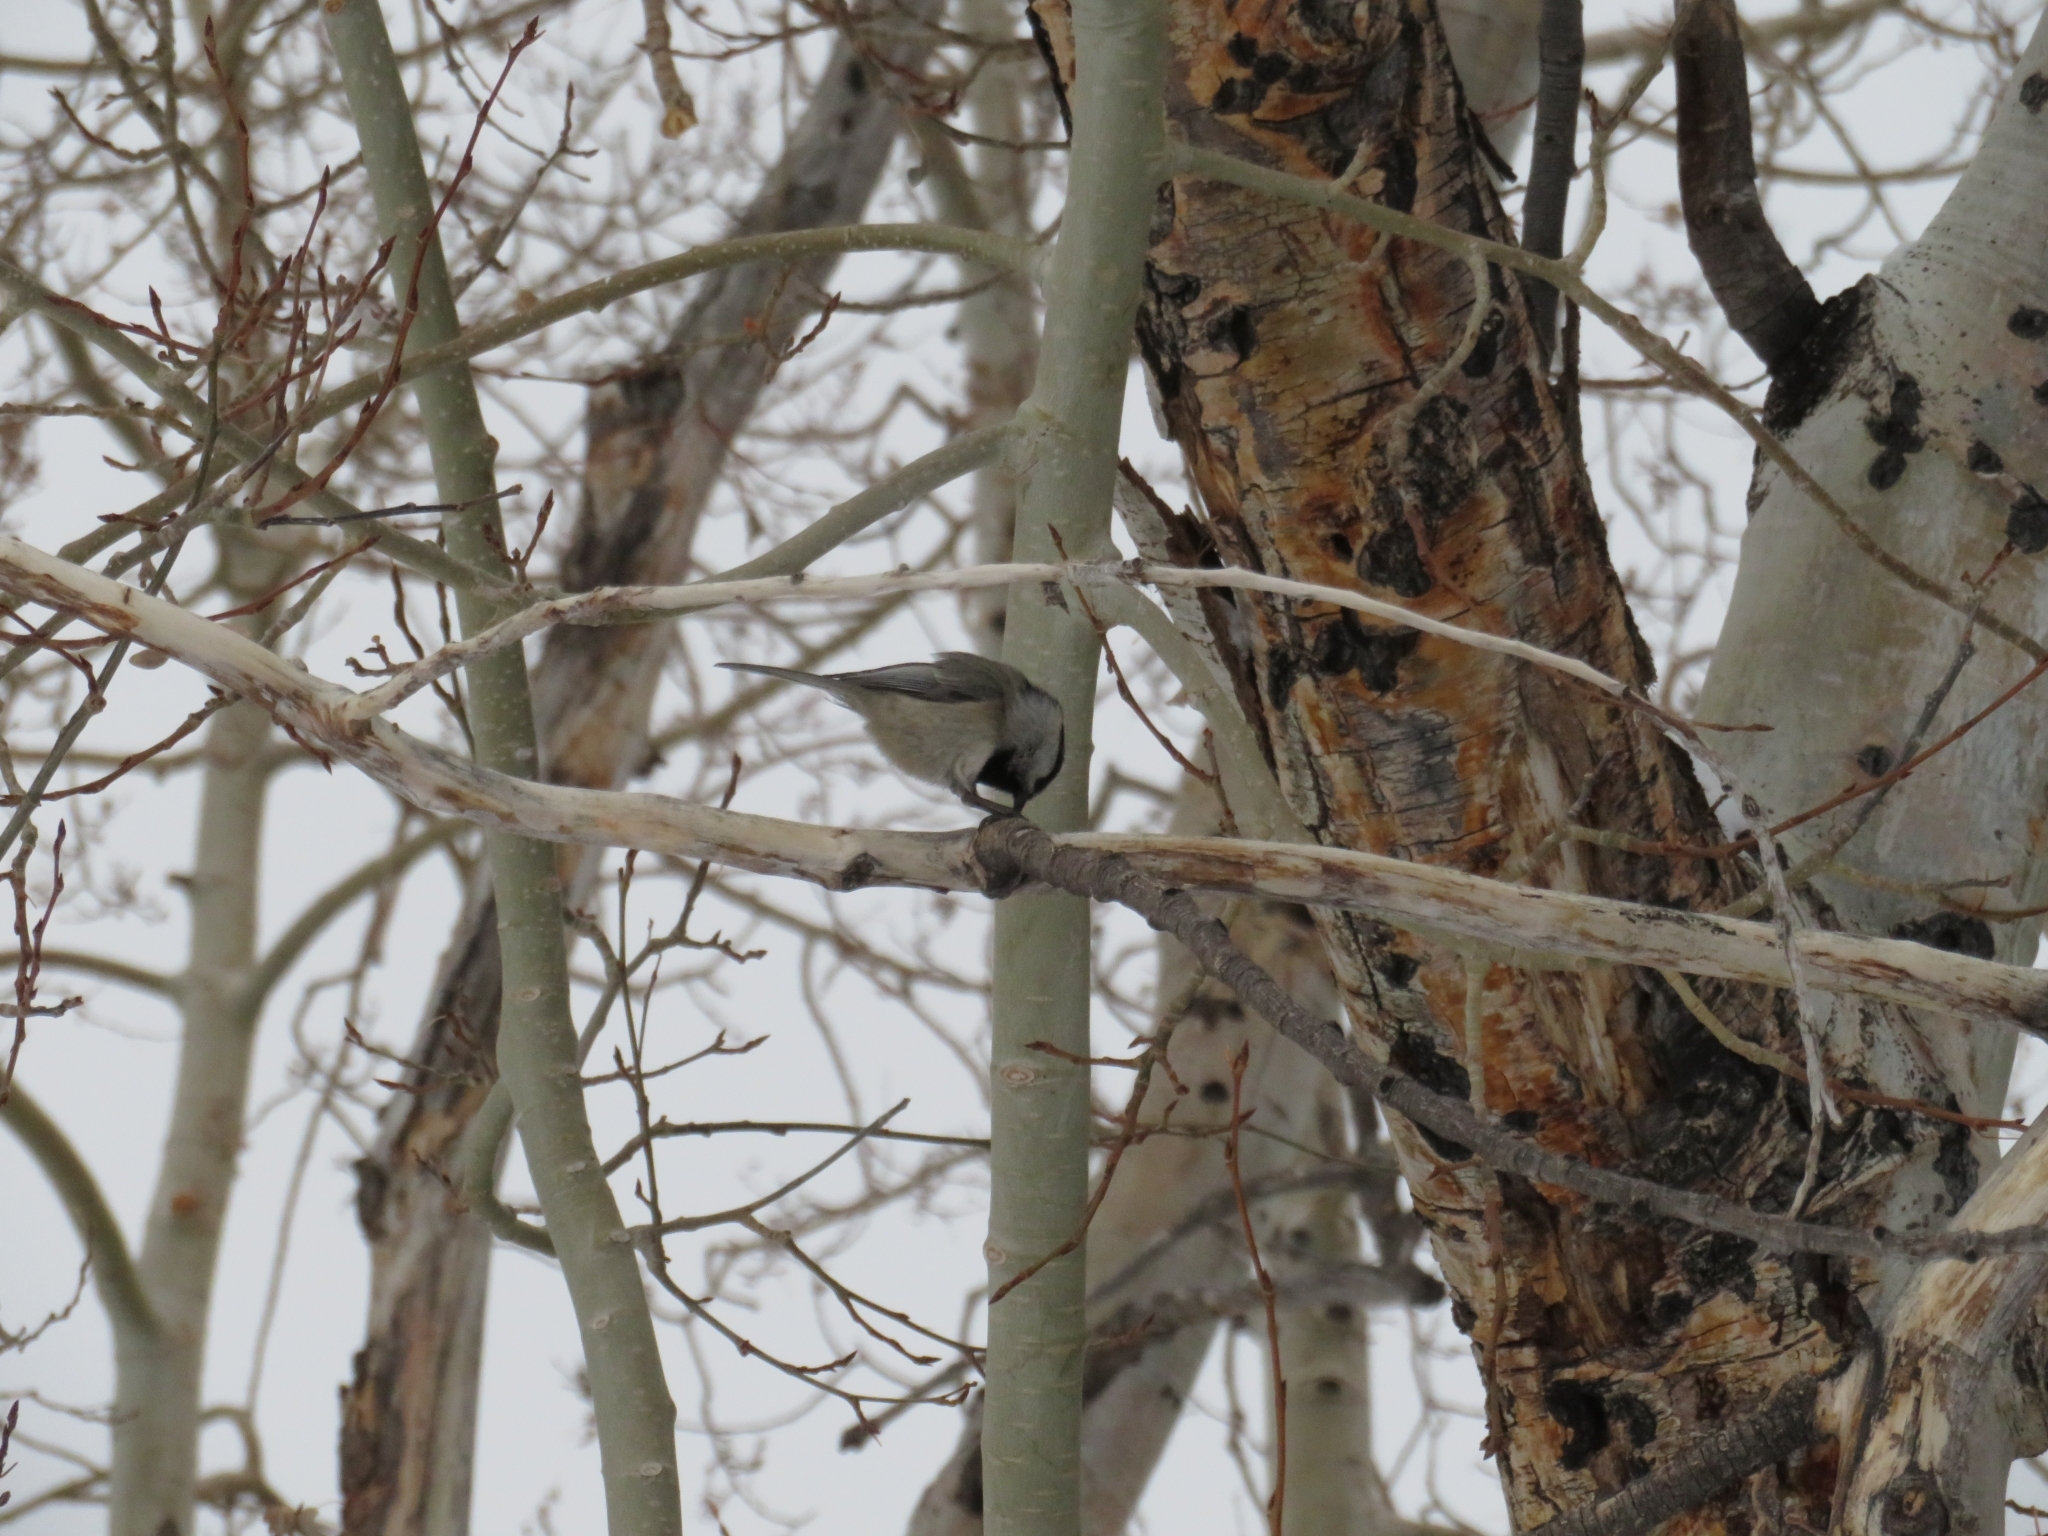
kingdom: Animalia
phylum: Chordata
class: Aves
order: Passeriformes
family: Paridae
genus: Poecile
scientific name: Poecile gambeli
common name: Mountain chickadee
